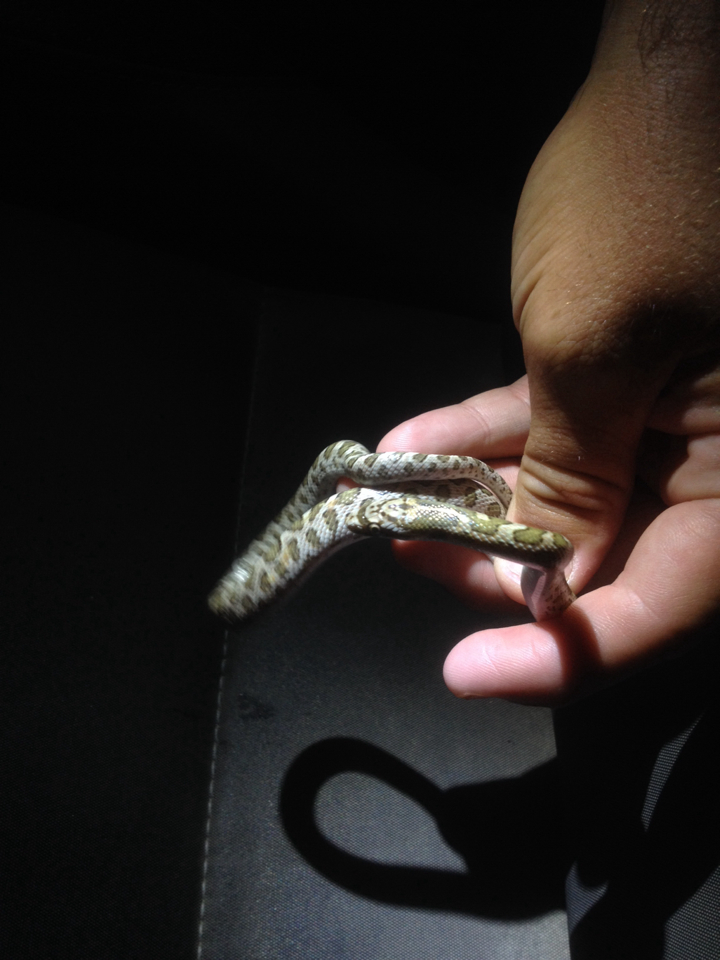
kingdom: Animalia
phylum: Chordata
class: Squamata
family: Colubridae
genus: Arizona
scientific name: Arizona elegans
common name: Glossy snake
